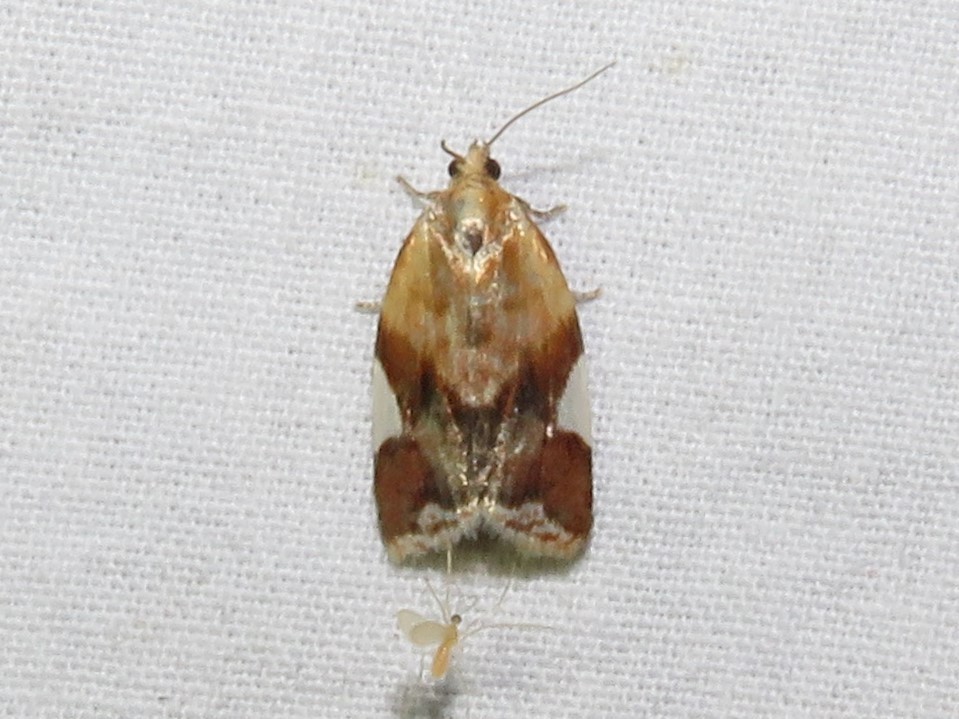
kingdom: Animalia
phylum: Arthropoda
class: Insecta
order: Lepidoptera
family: Tortricidae
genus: Clepsis
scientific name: Clepsis persicana
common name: White triangle tortrix
